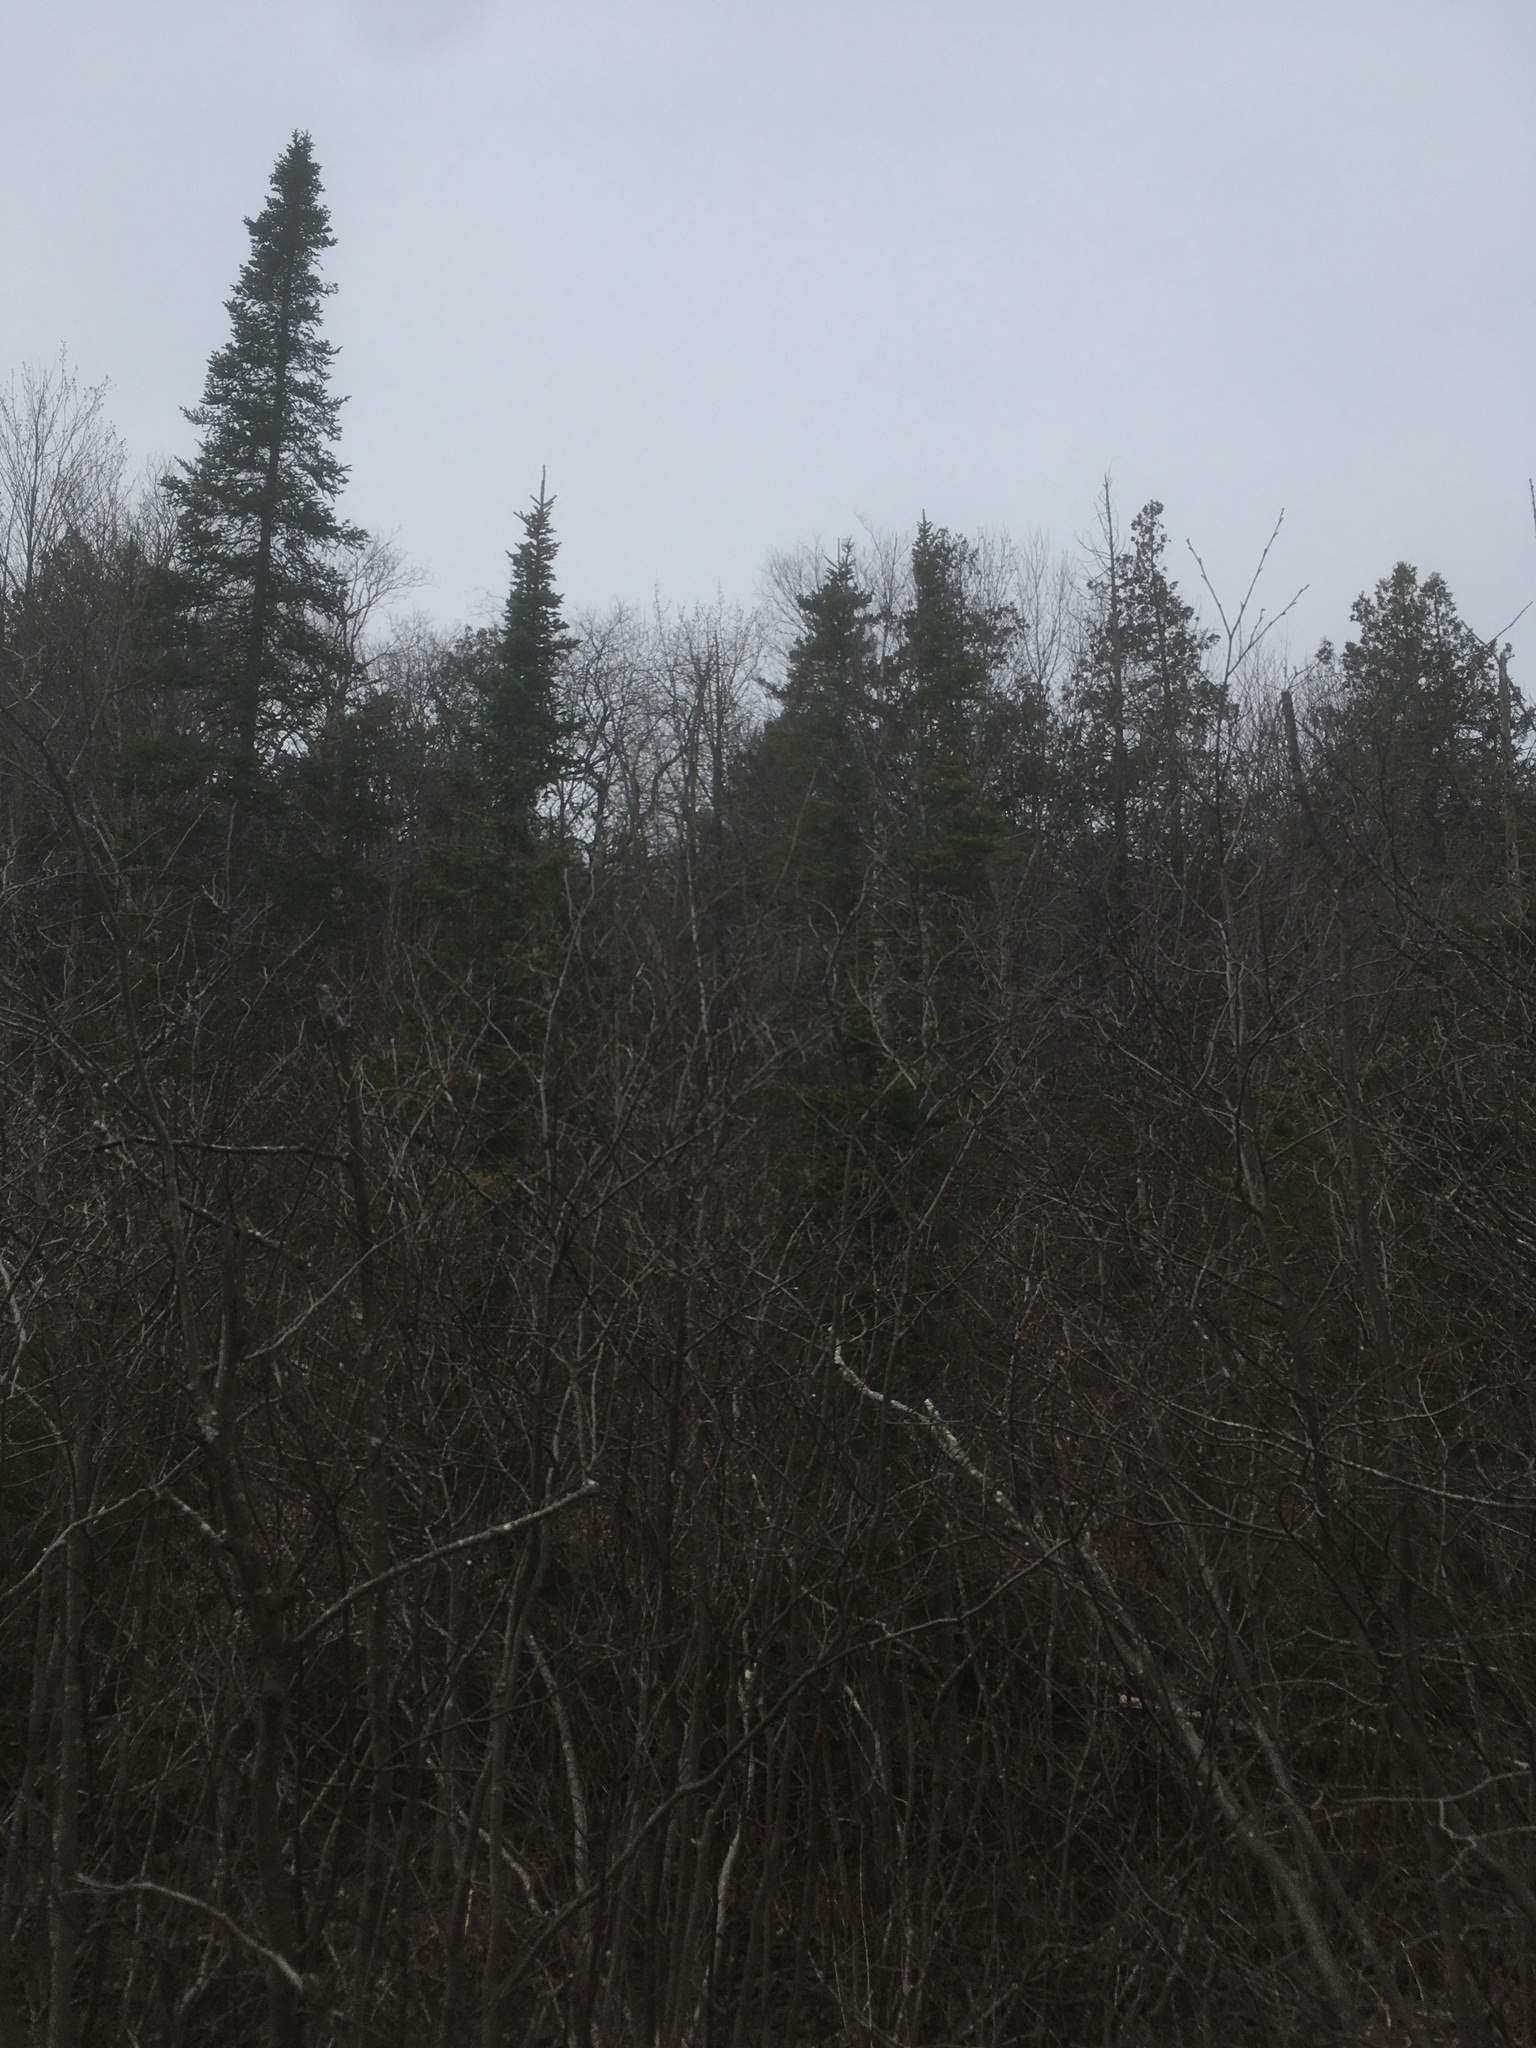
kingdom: Plantae
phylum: Tracheophyta
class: Pinopsida
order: Pinales
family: Pinaceae
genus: Abies
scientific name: Abies balsamea
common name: Balsam fir
